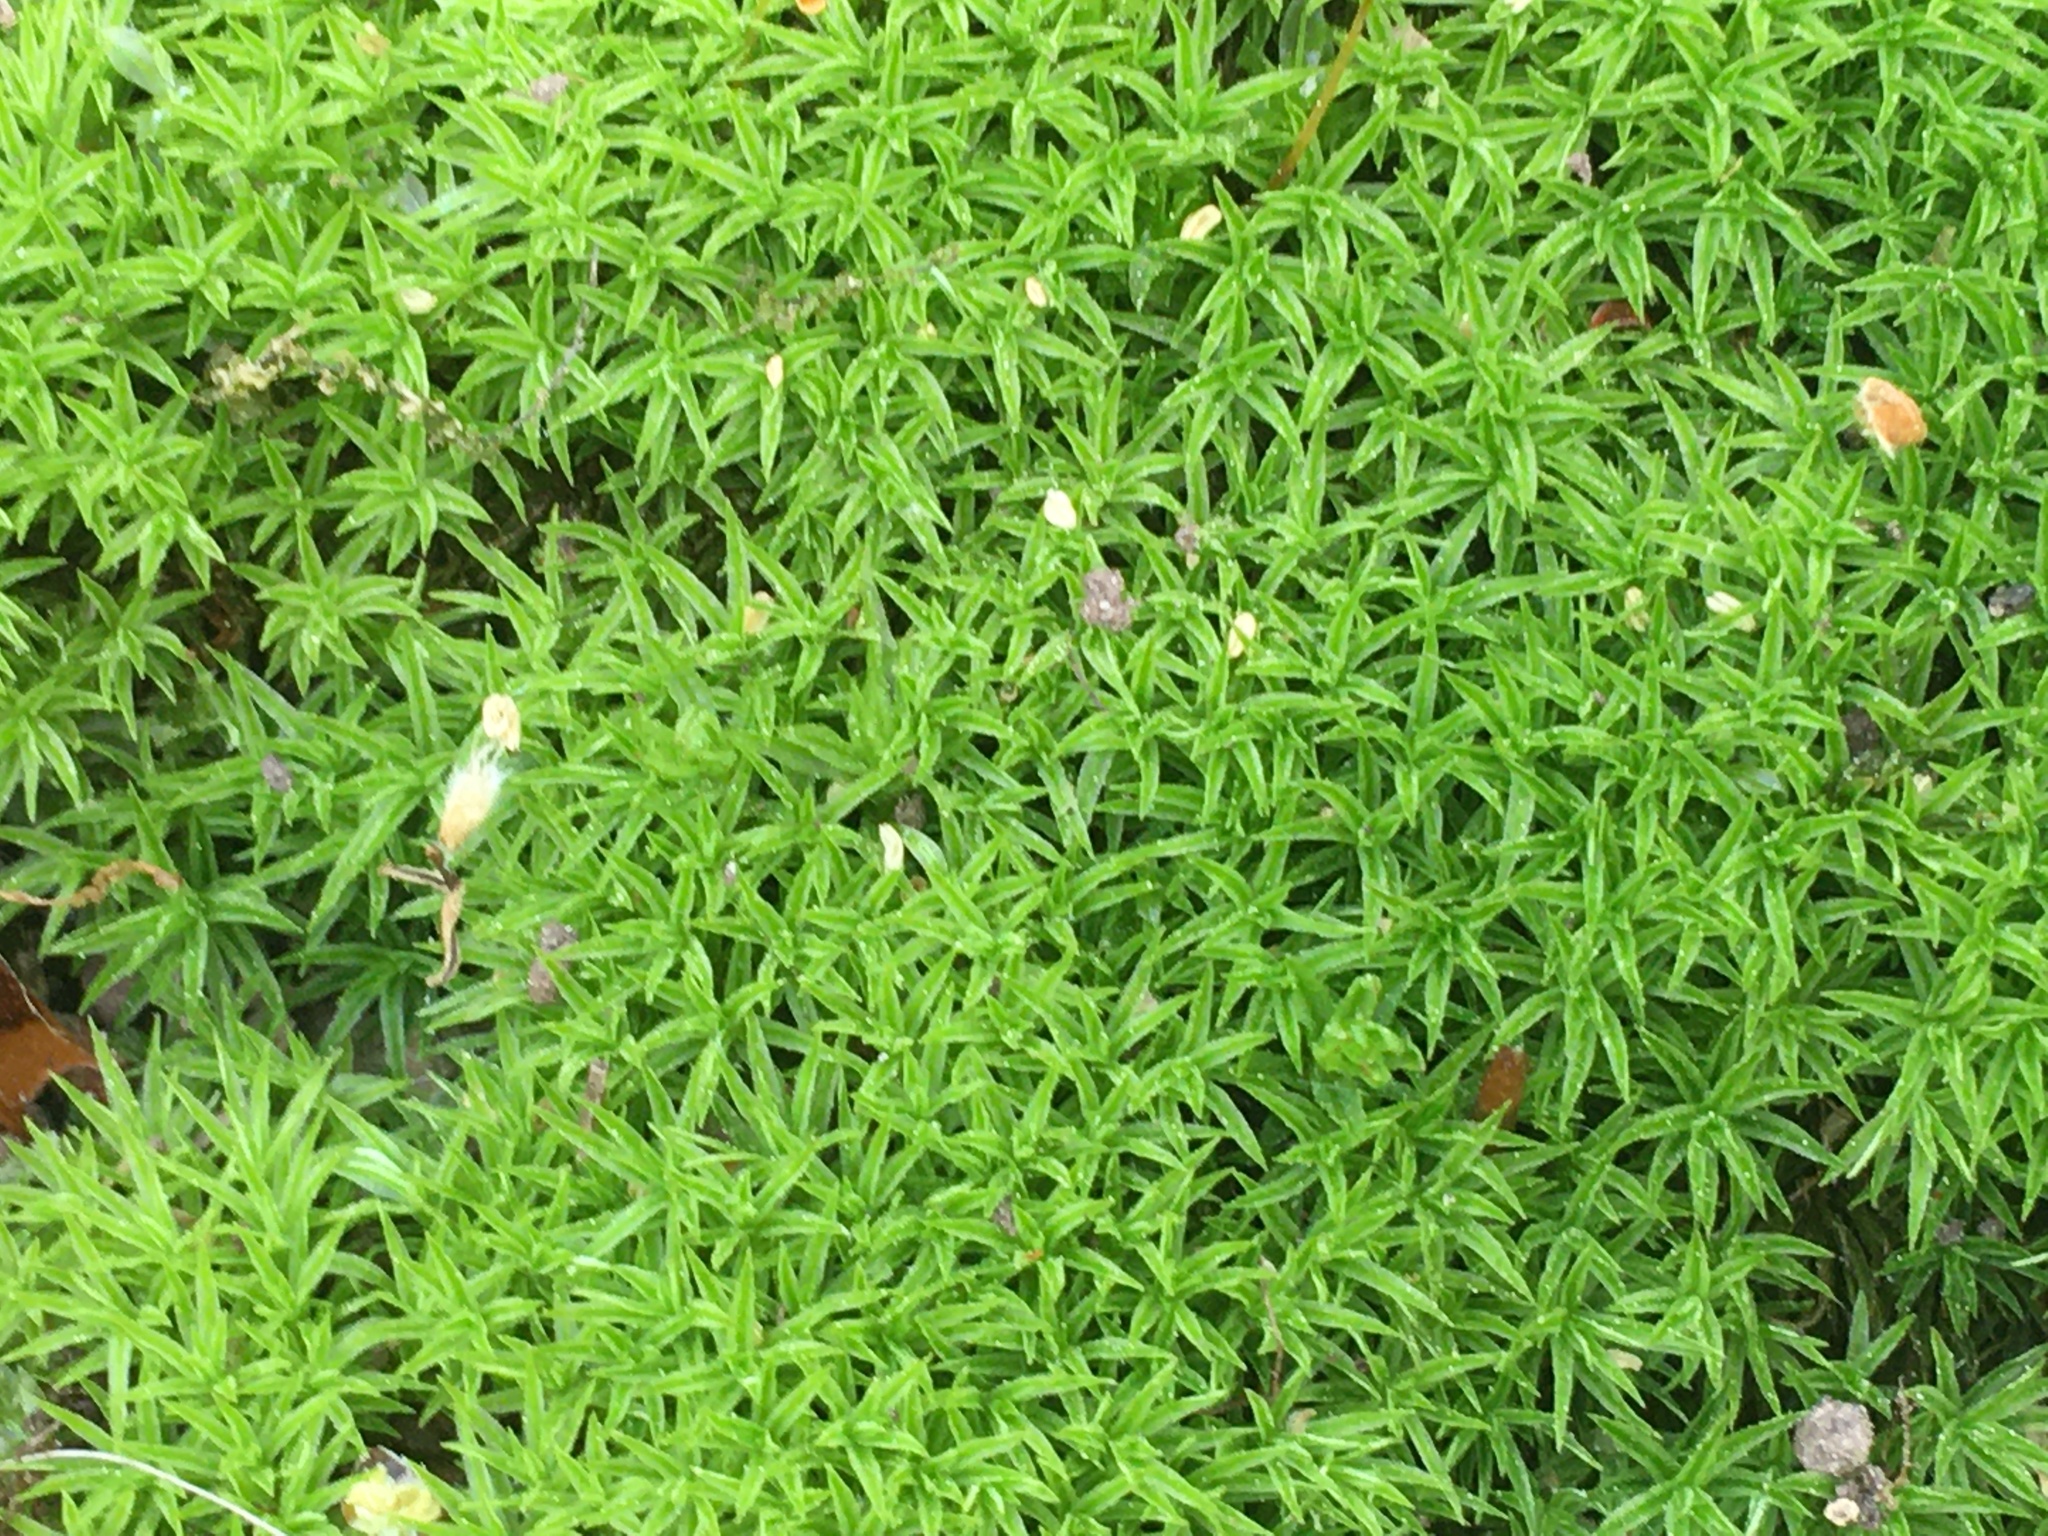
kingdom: Plantae
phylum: Bryophyta
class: Polytrichopsida
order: Polytrichales
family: Polytrichaceae
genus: Atrichum
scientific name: Atrichum angustatum
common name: Lesser smoothcap
